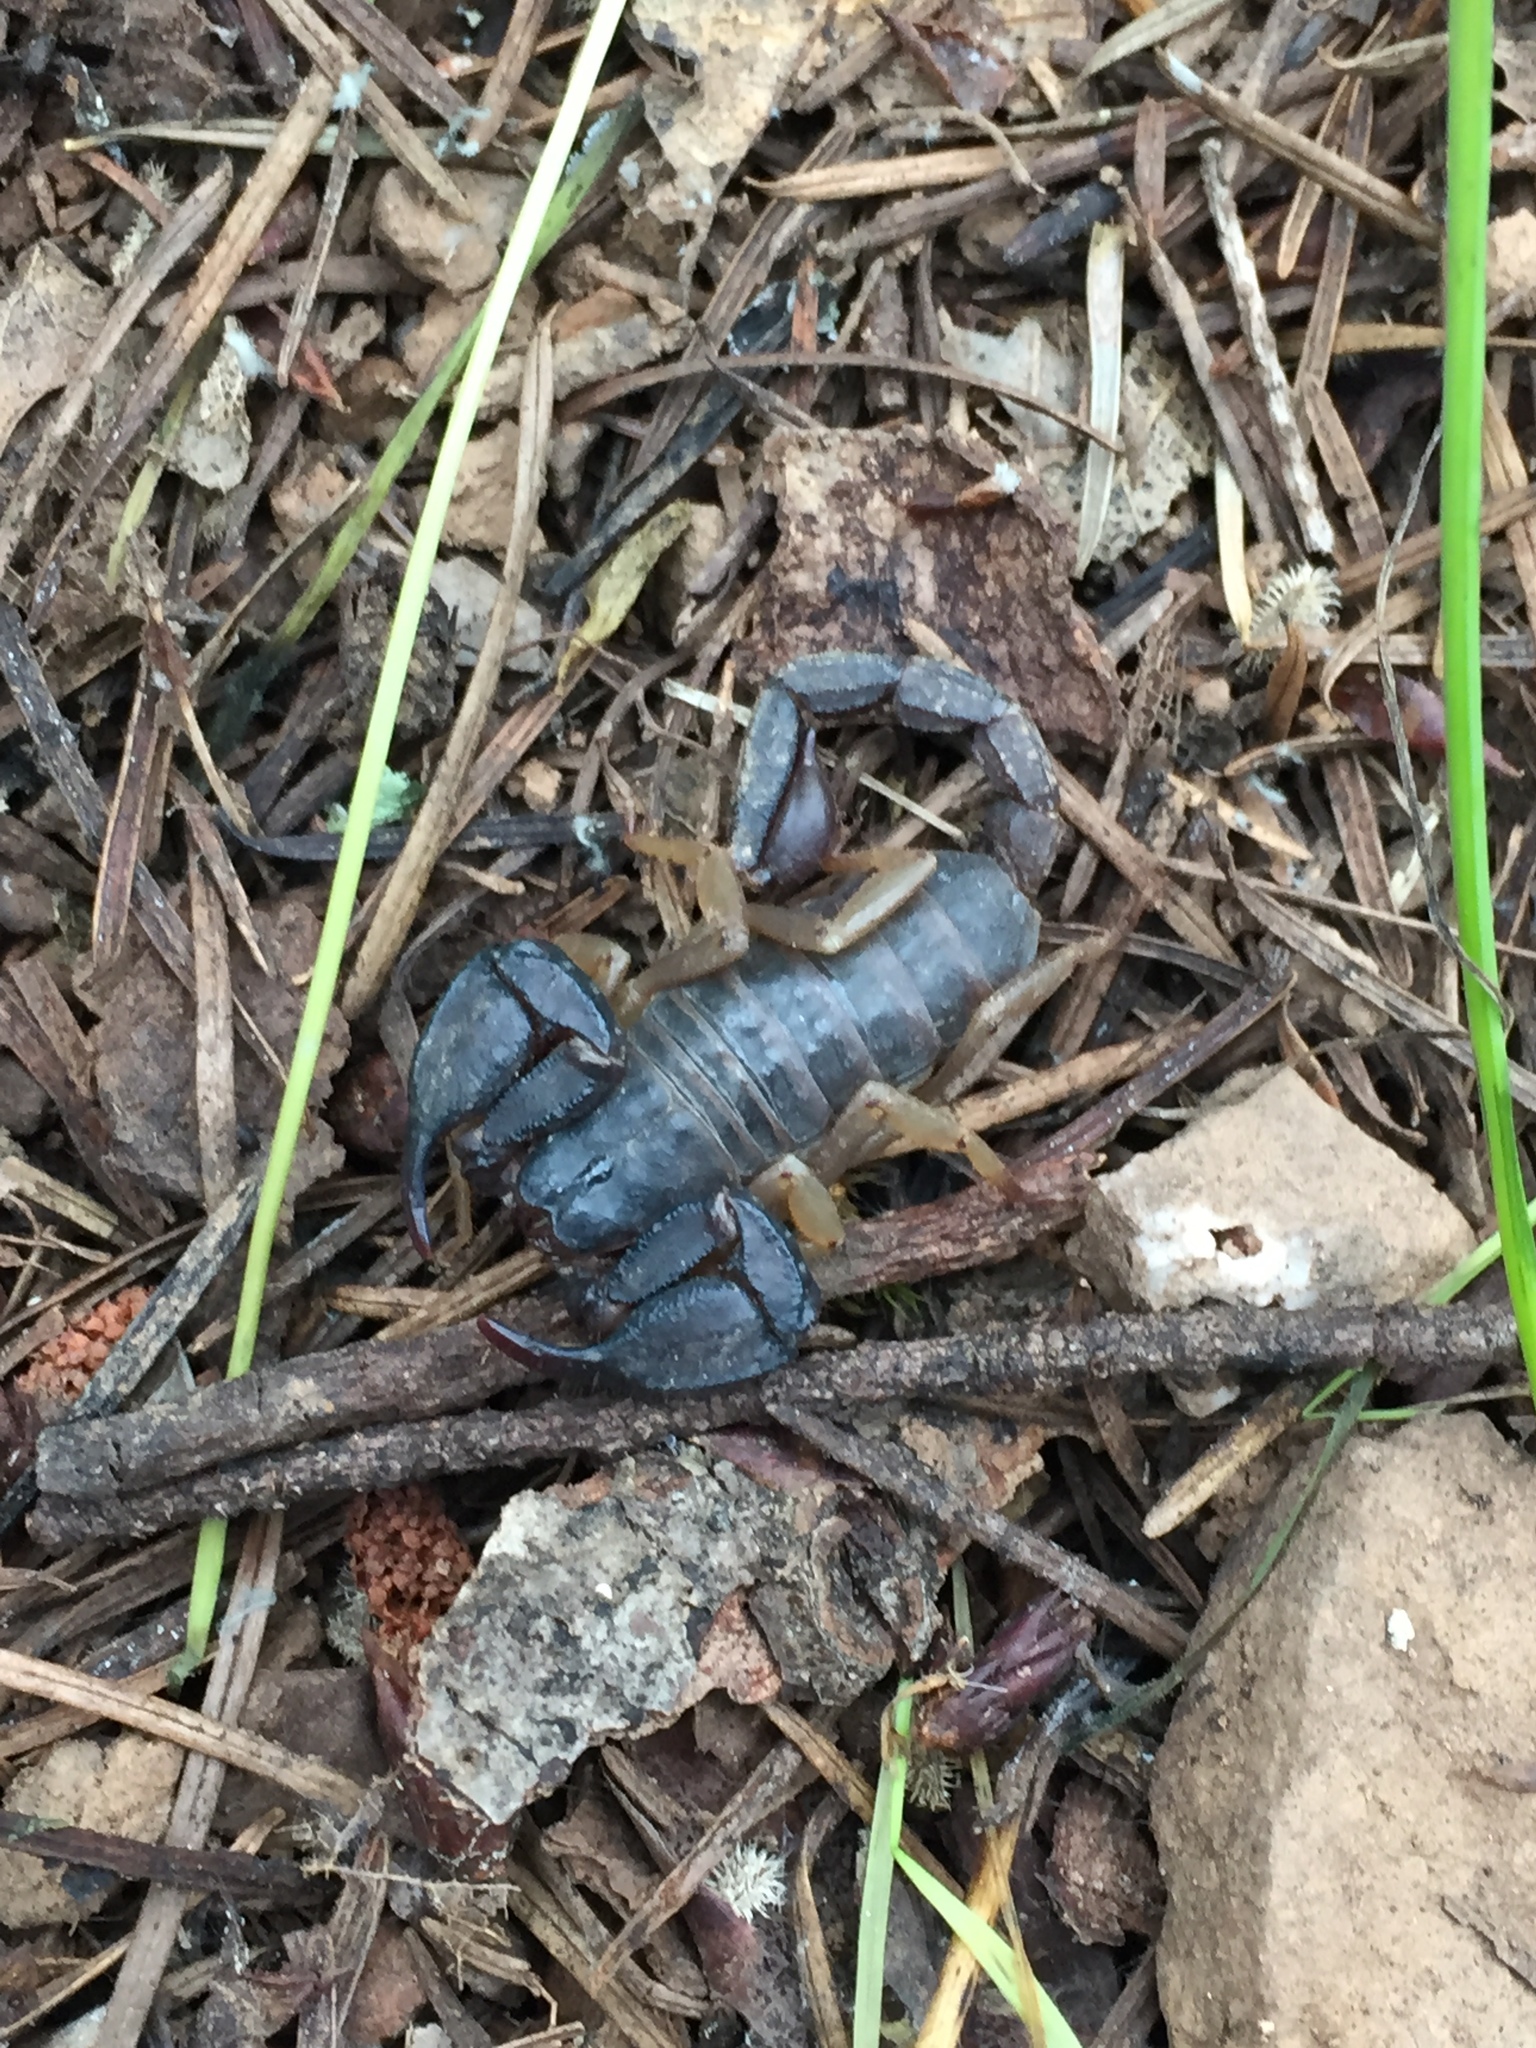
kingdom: Animalia
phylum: Arthropoda
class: Arachnida
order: Scorpiones
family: Chactidae
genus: Uroctonus
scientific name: Uroctonus mordax
